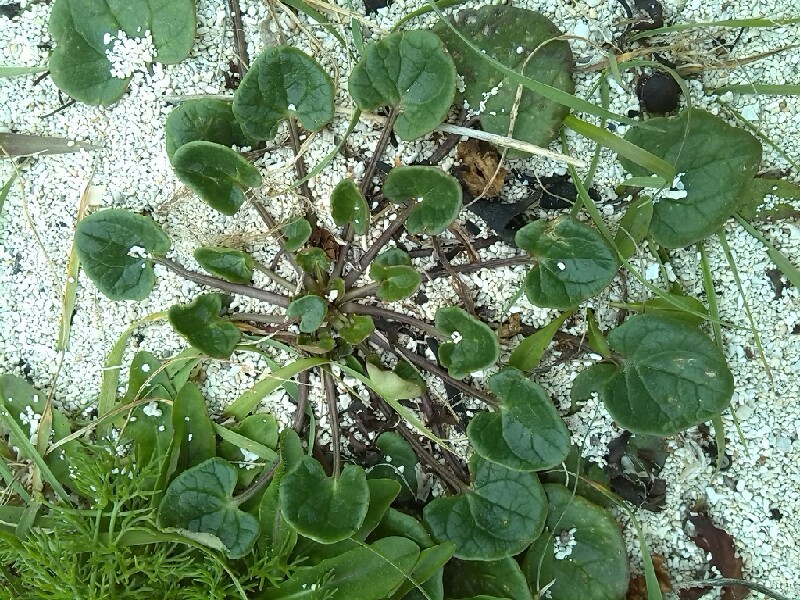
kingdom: Plantae
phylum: Tracheophyta
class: Magnoliopsida
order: Brassicales
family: Brassicaceae
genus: Cochlearia
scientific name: Cochlearia officinalis
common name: Scurvy-grass
